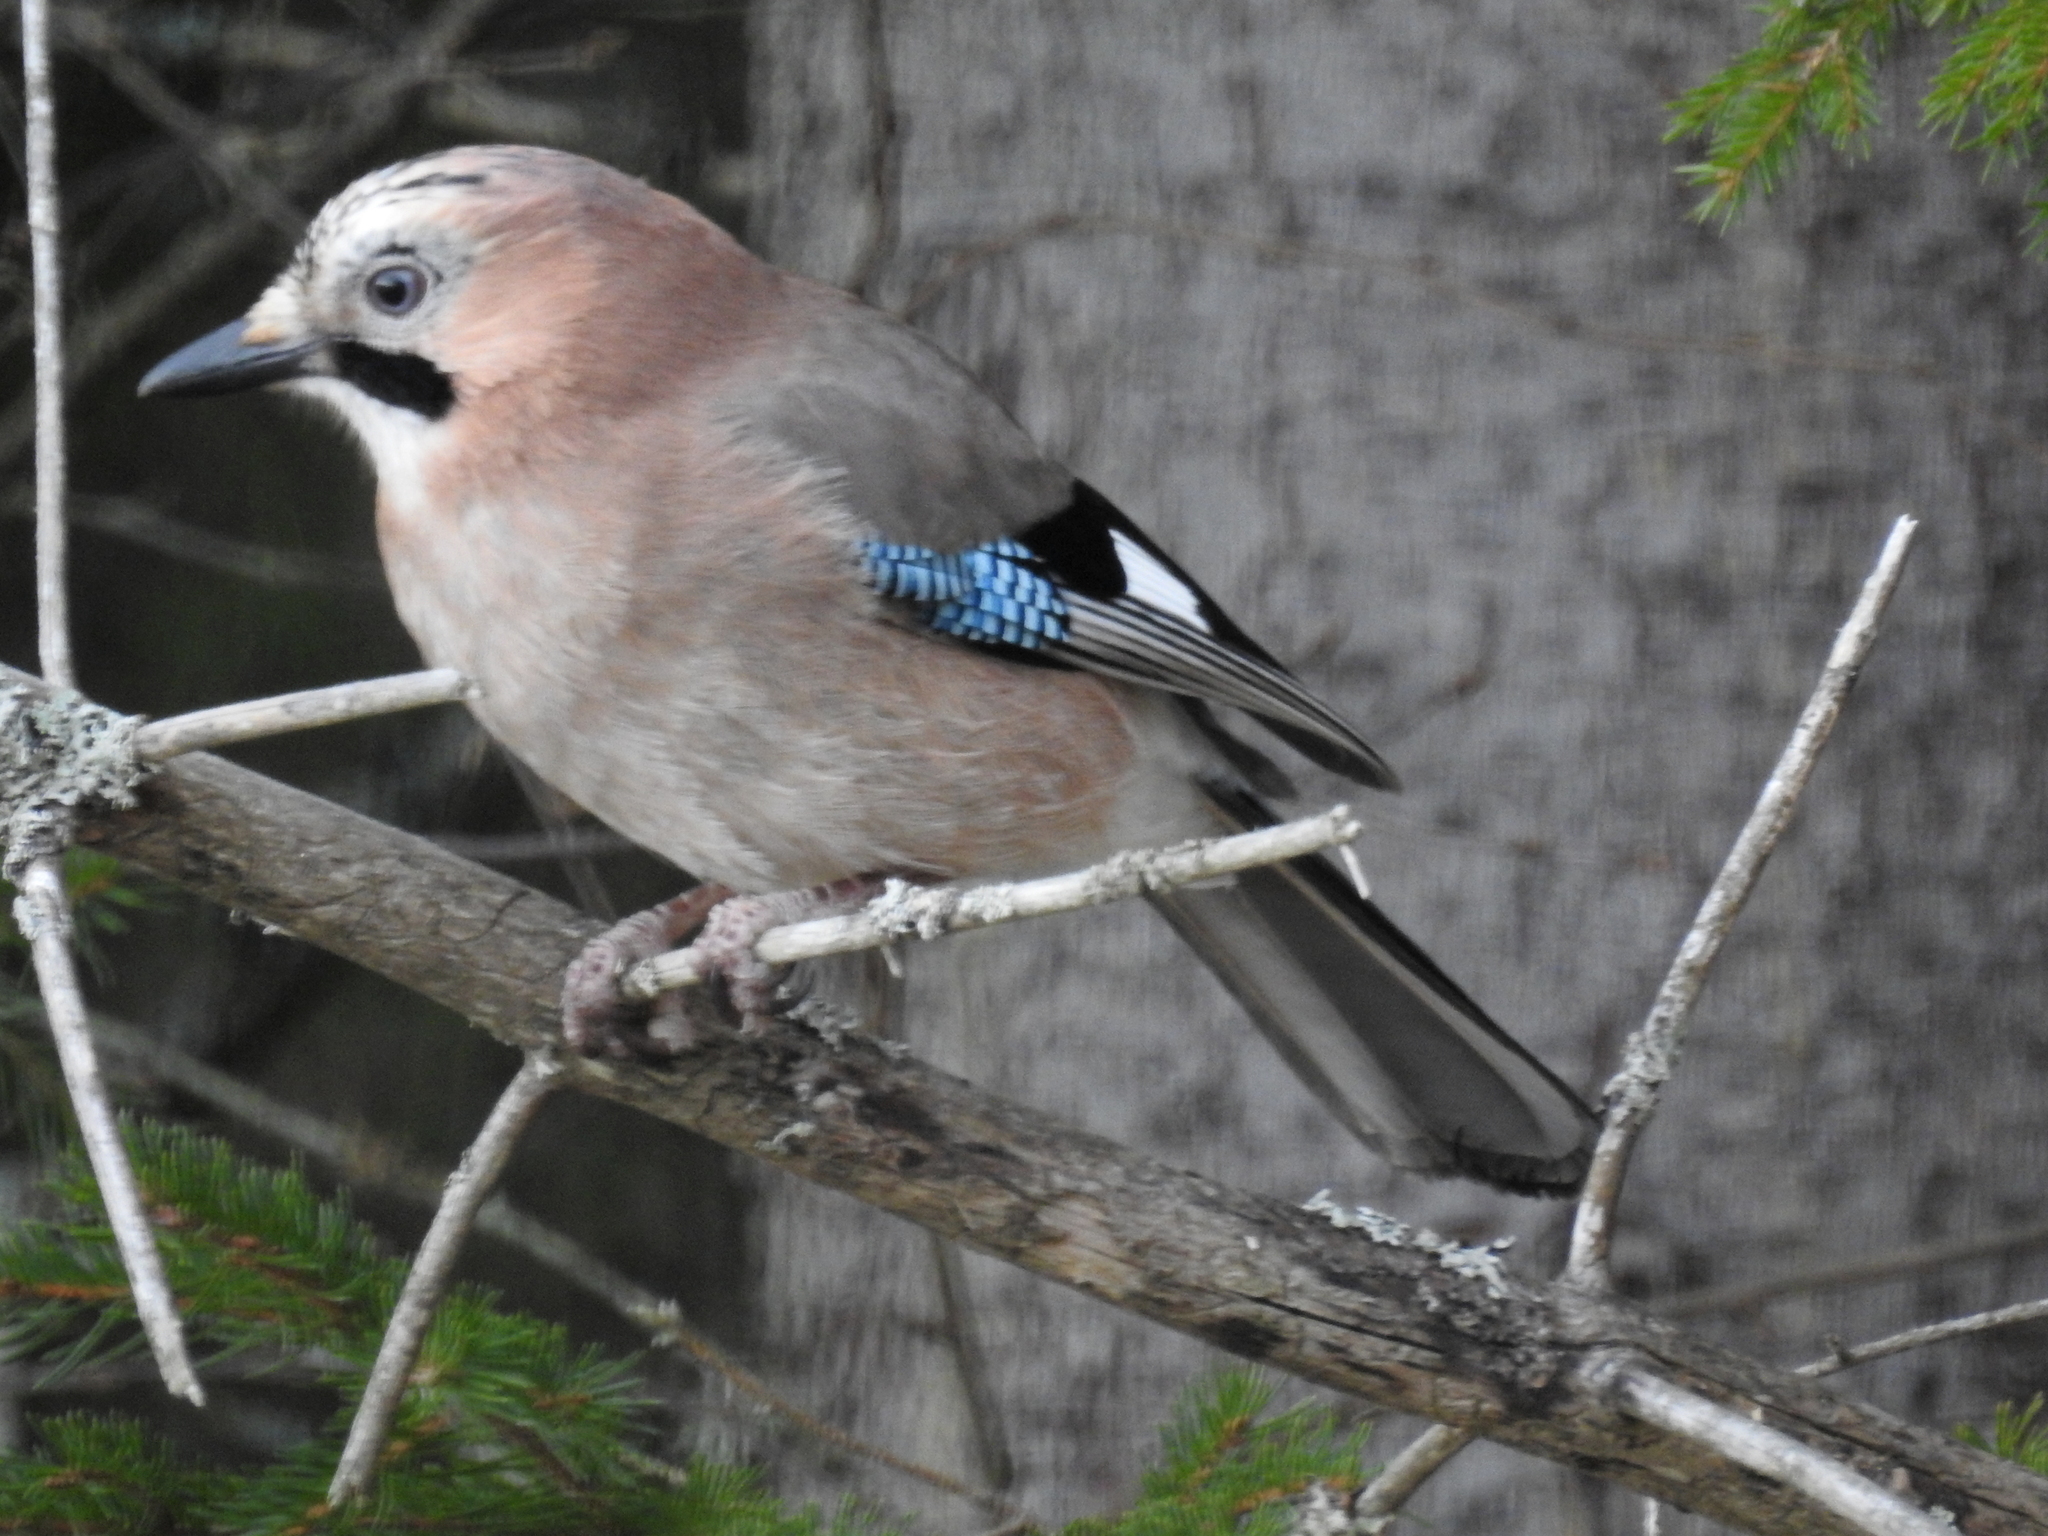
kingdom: Animalia
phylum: Chordata
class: Aves
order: Passeriformes
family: Corvidae
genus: Garrulus
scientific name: Garrulus glandarius
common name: Eurasian jay
